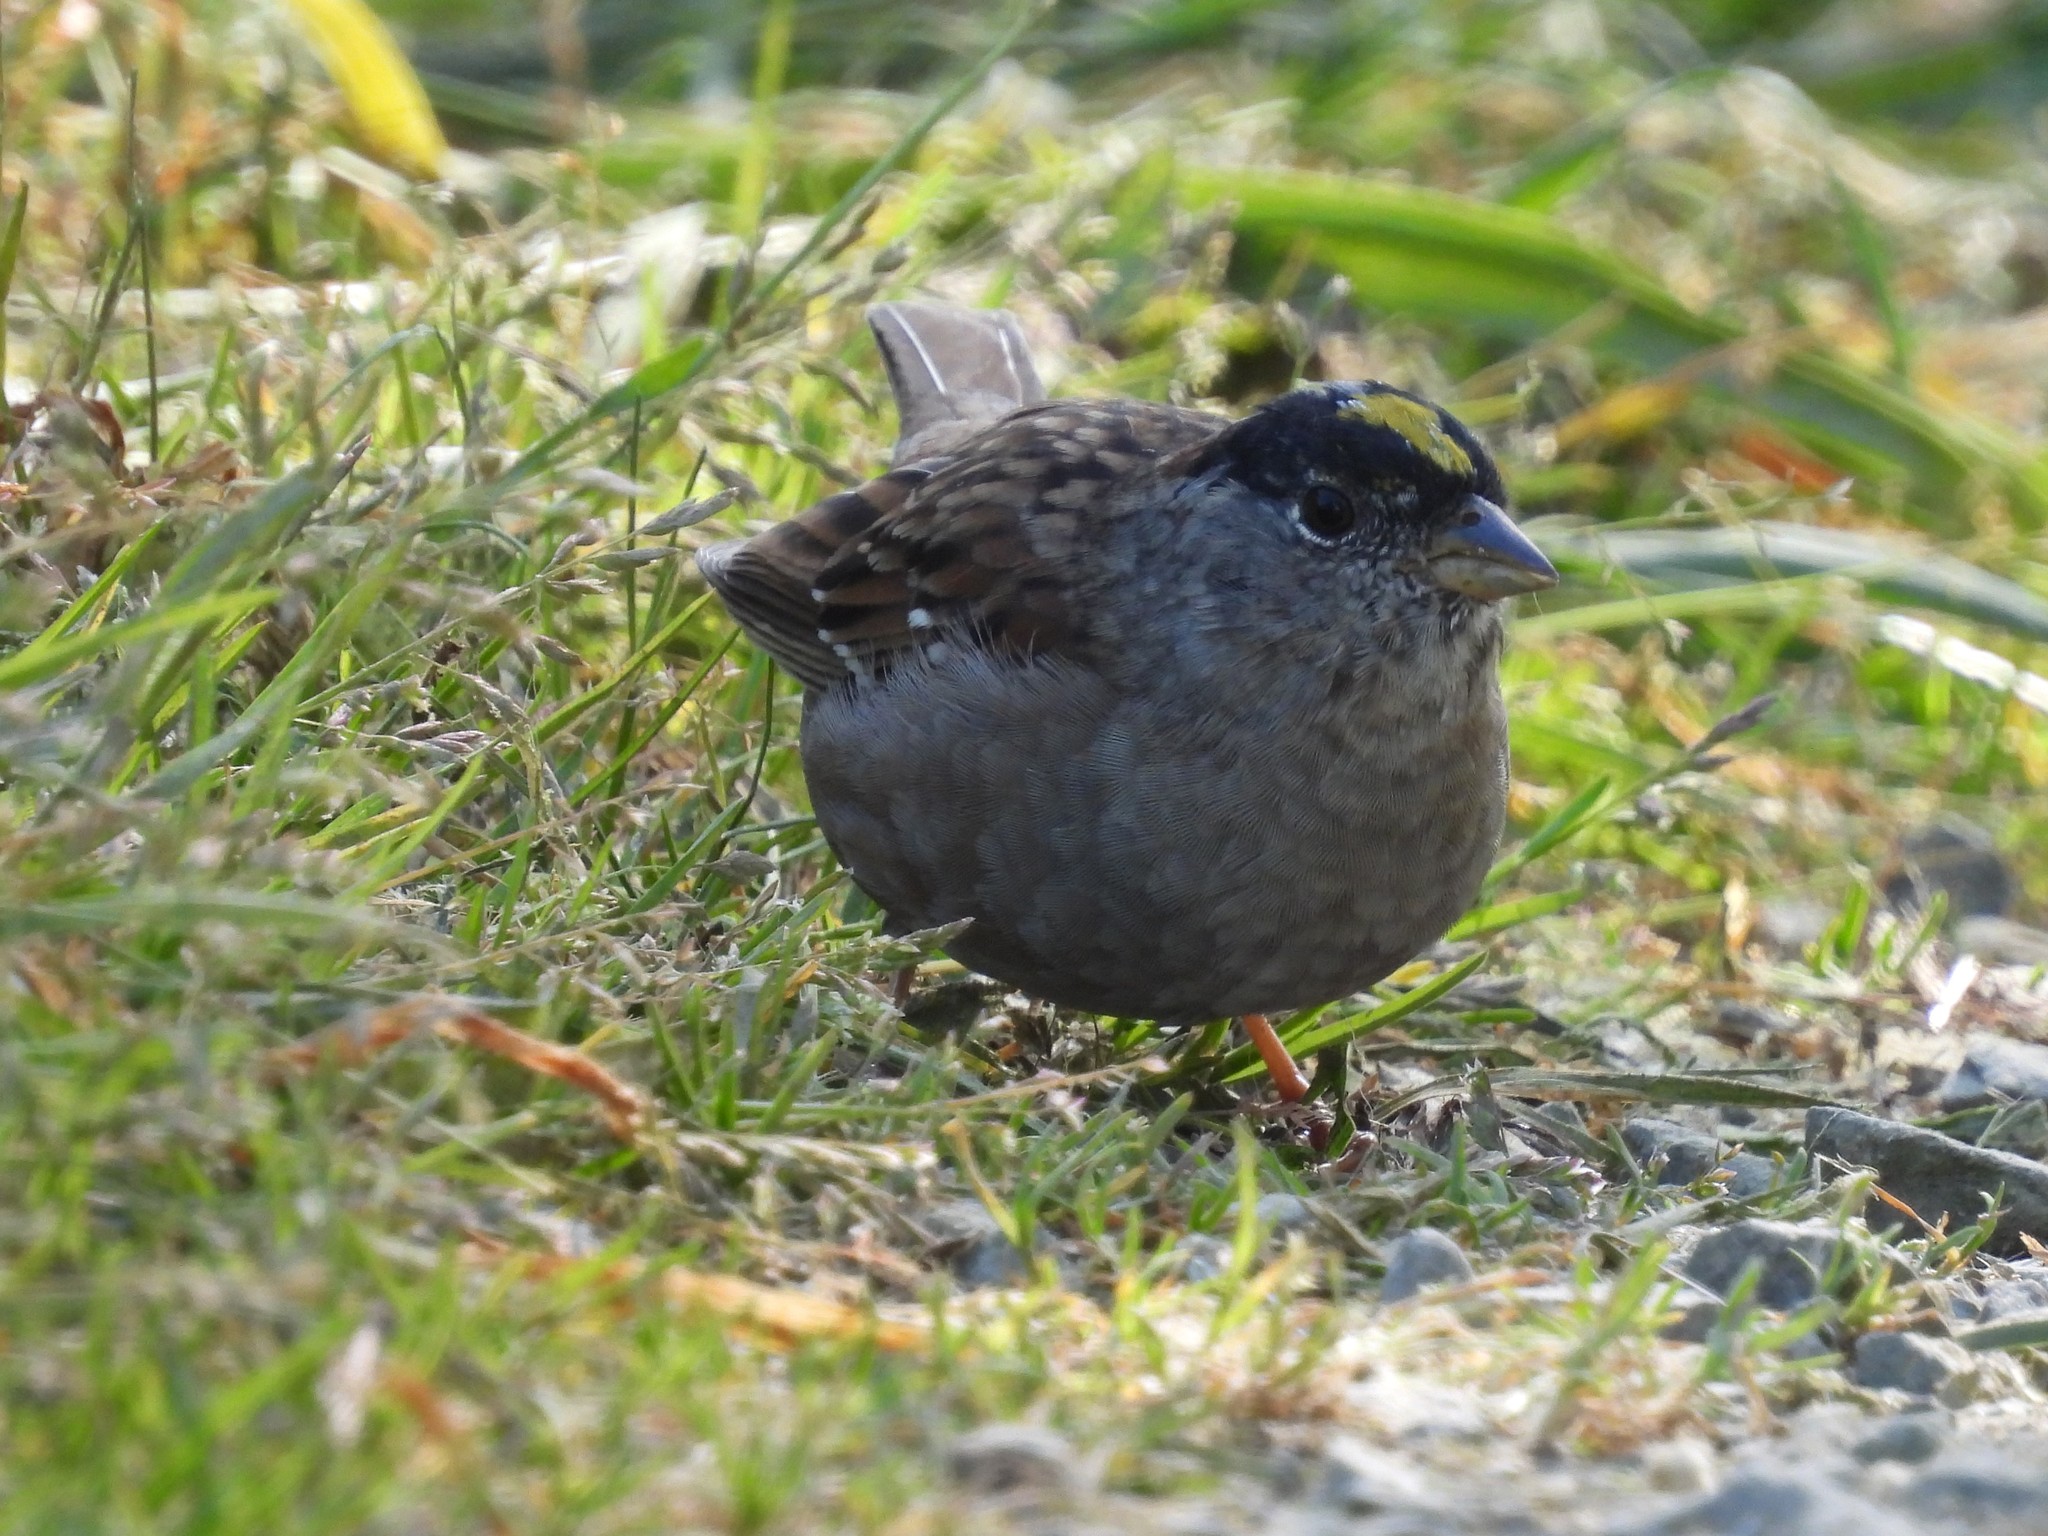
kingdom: Animalia
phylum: Chordata
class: Aves
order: Passeriformes
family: Passerellidae
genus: Zonotrichia
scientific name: Zonotrichia atricapilla
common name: Golden-crowned sparrow
